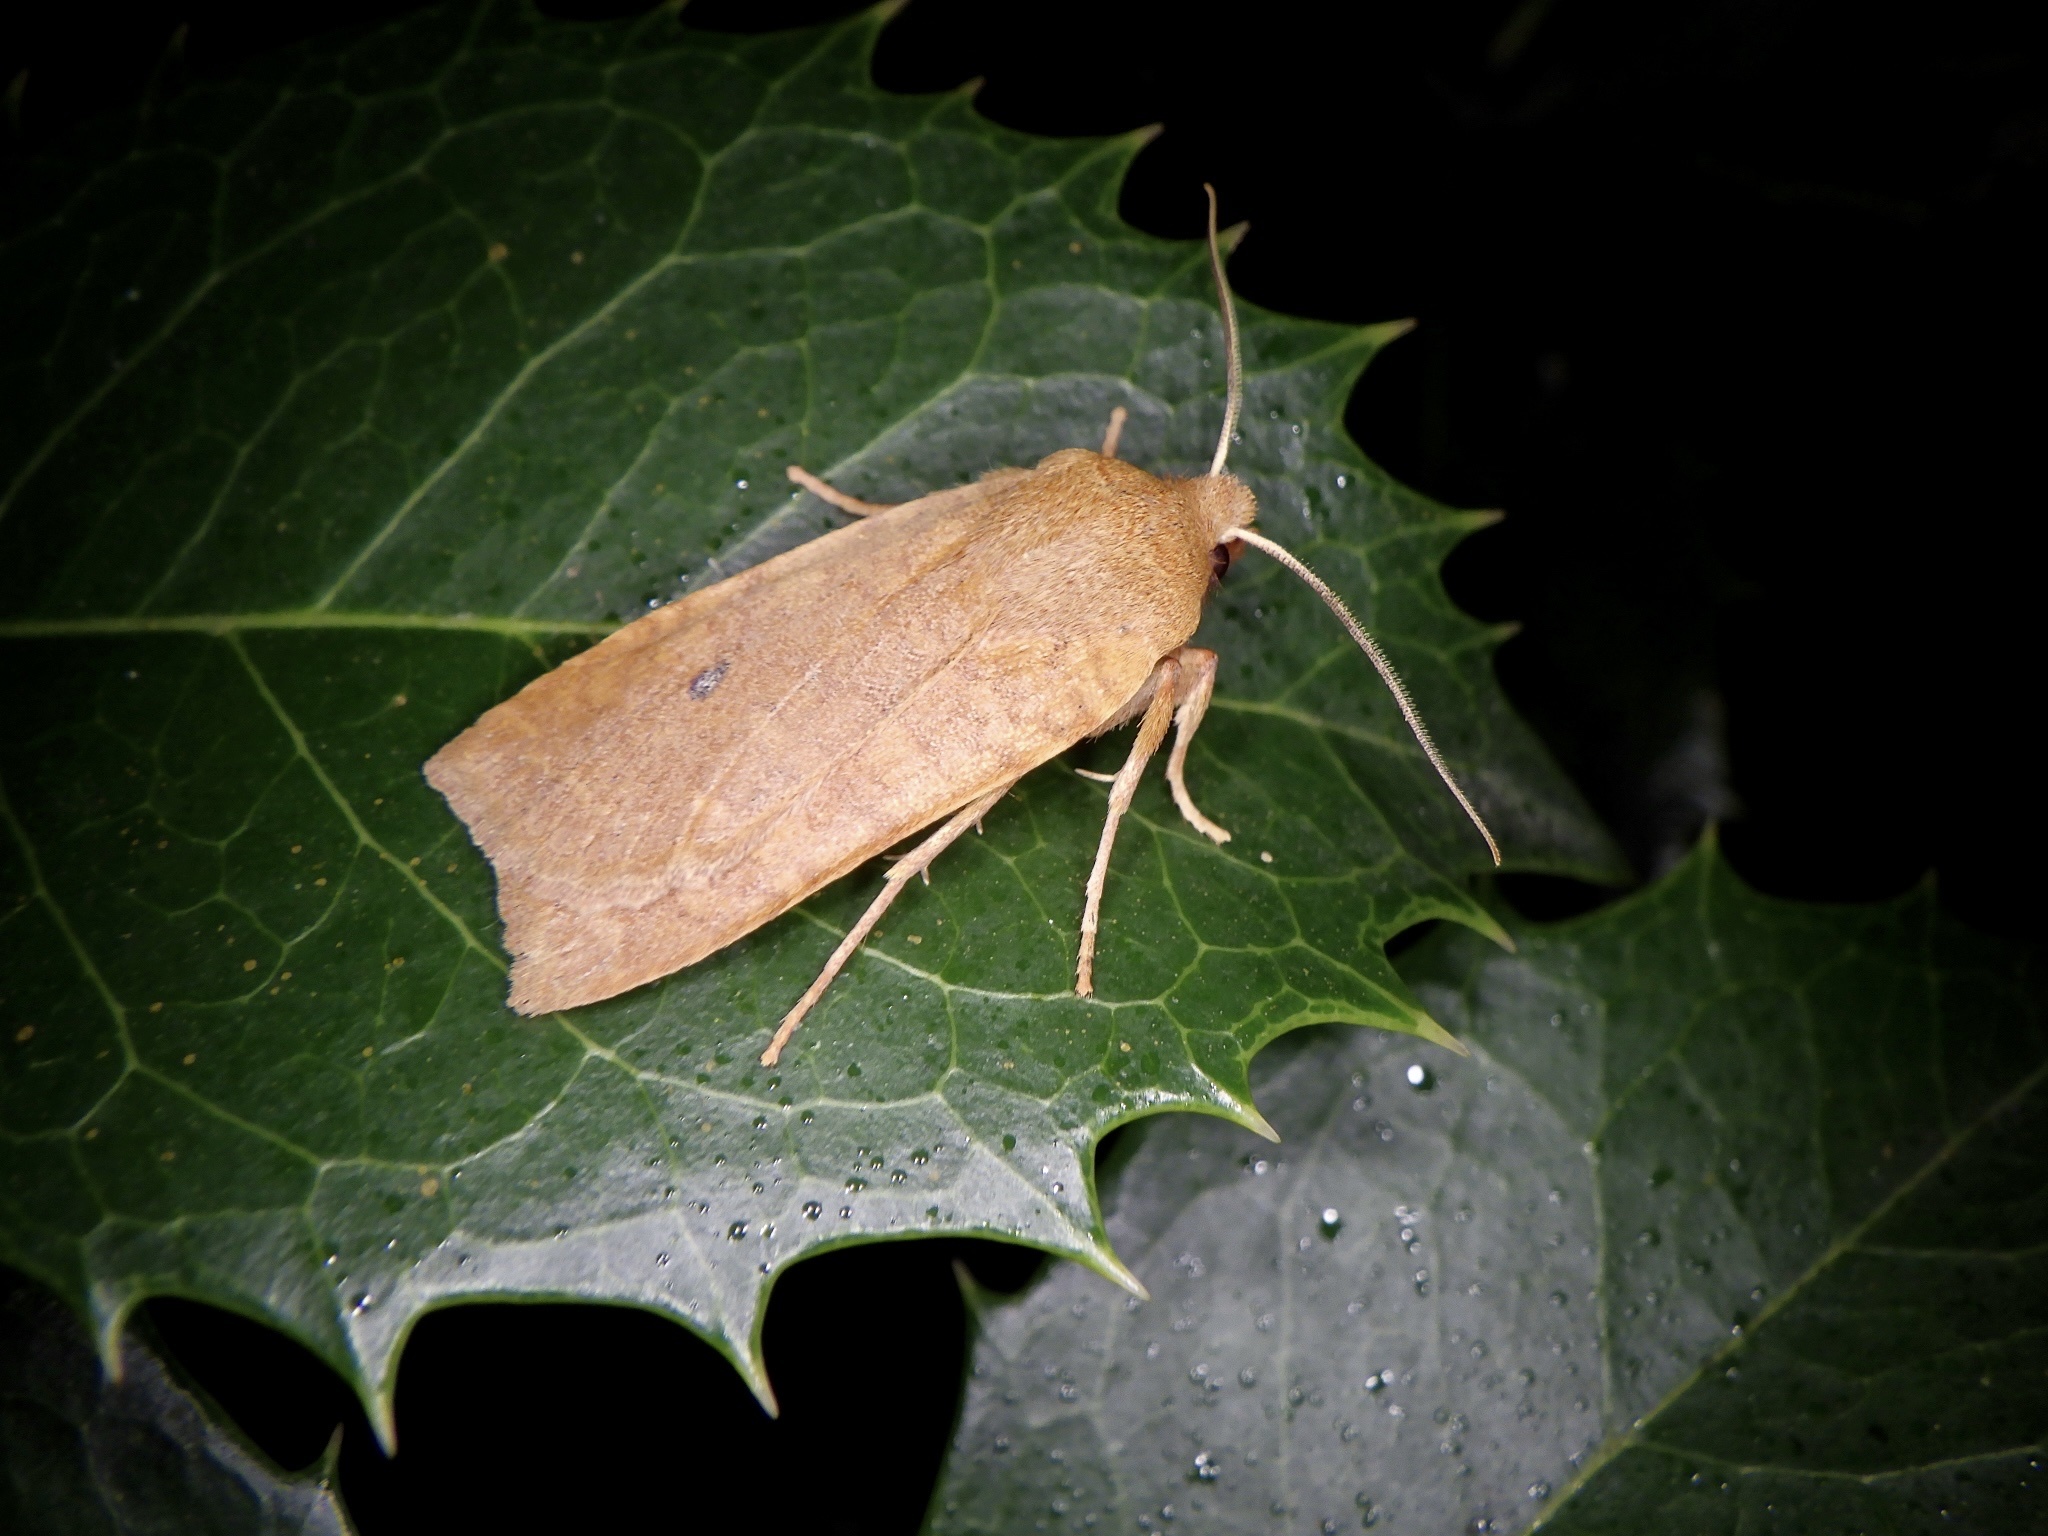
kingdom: Animalia
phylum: Arthropoda
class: Insecta
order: Lepidoptera
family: Noctuidae
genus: Conistra
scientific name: Conistra albipuncta
